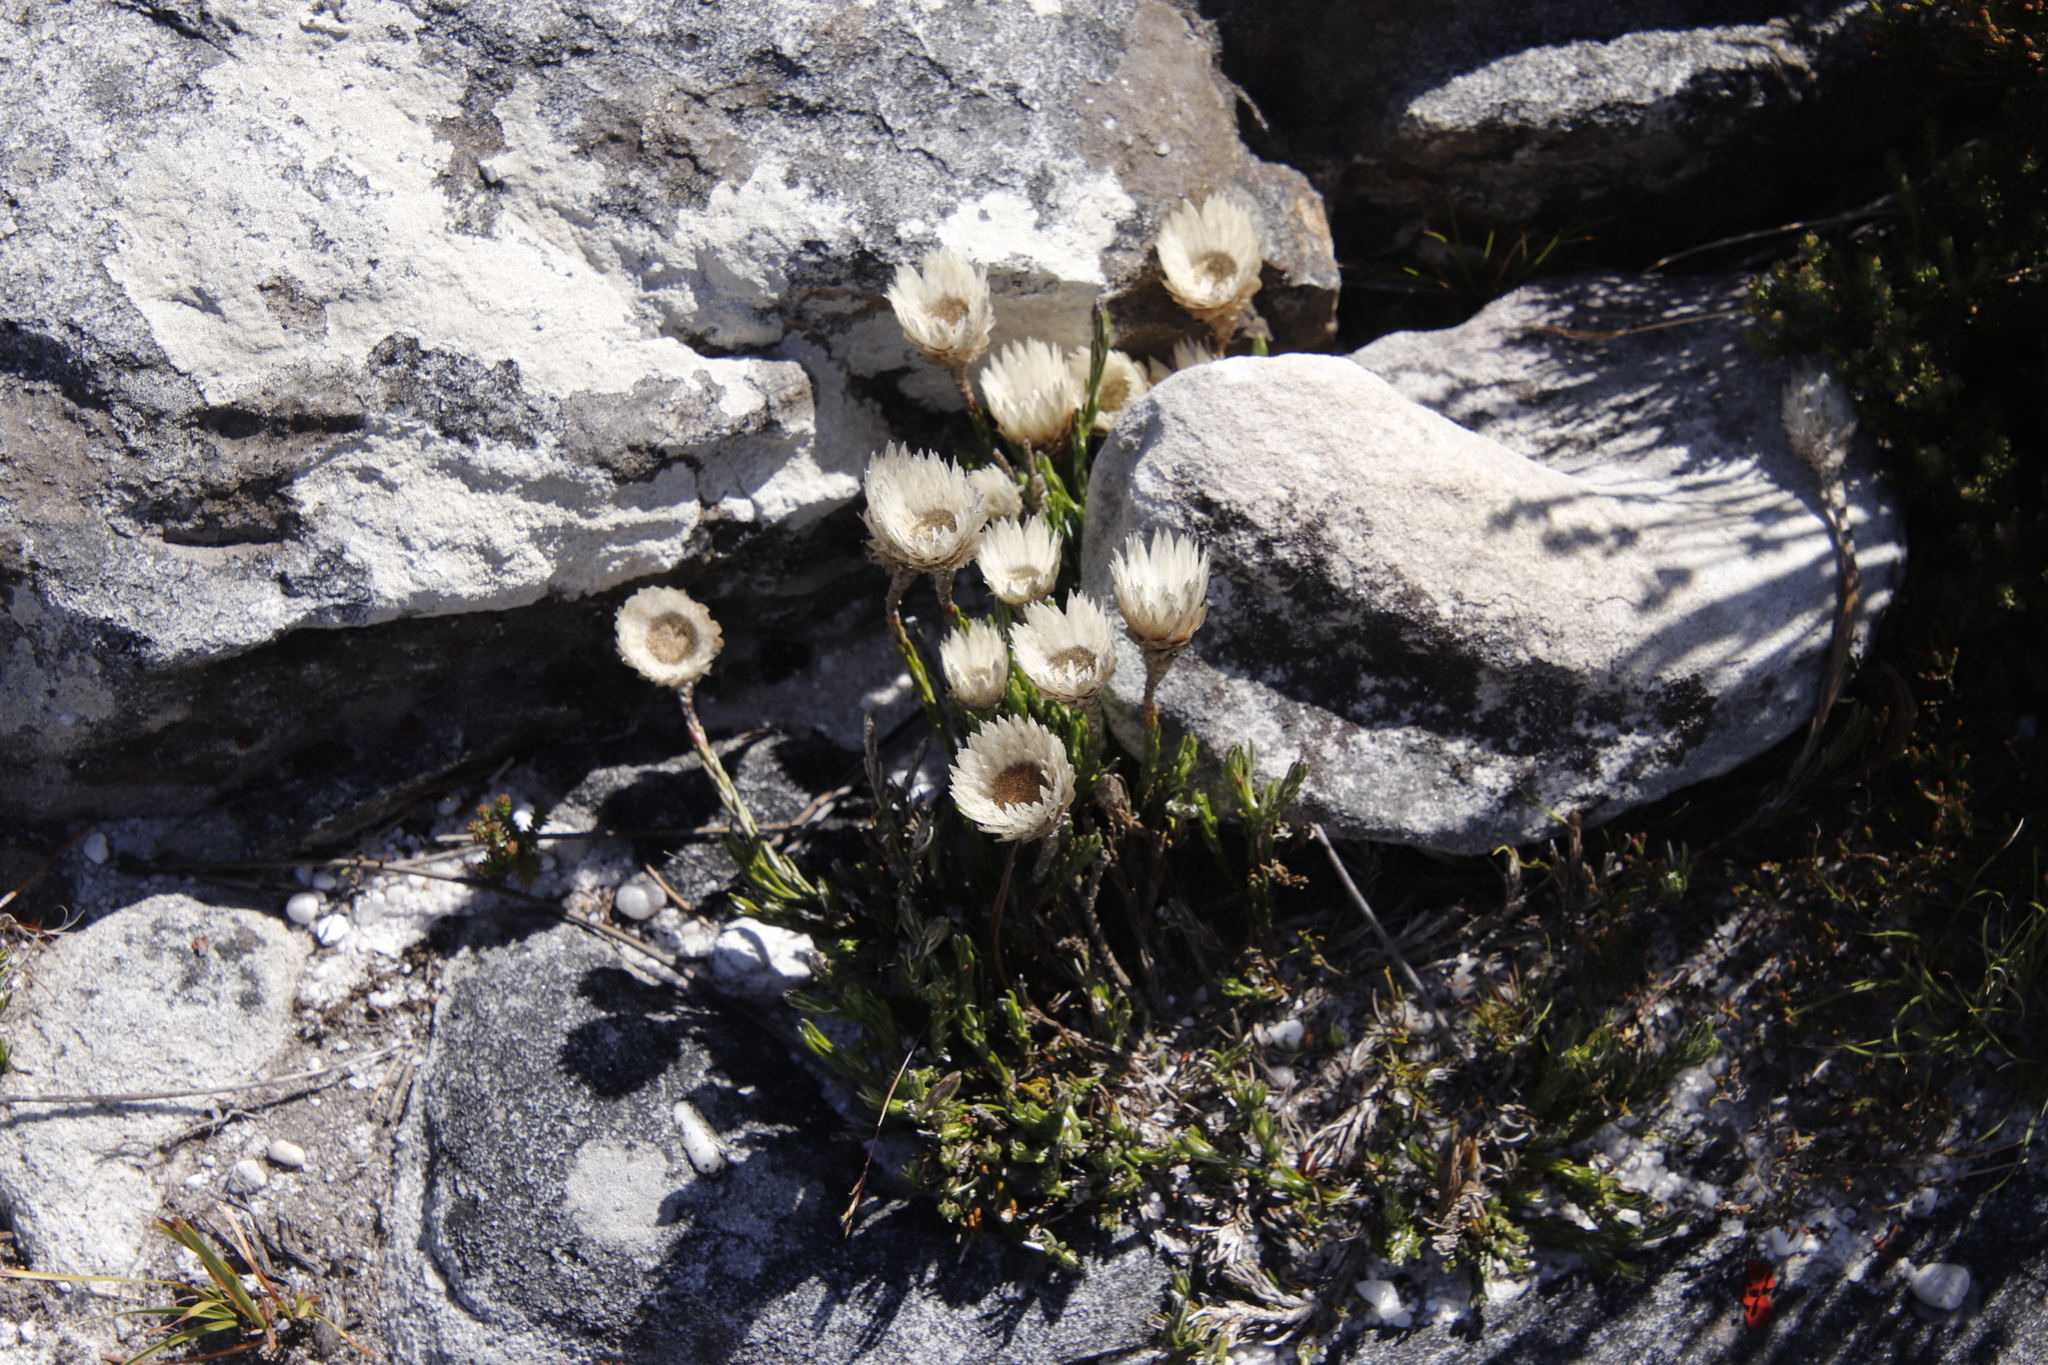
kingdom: Plantae
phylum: Tracheophyta
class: Magnoliopsida
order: Asterales
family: Asteraceae
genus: Edmondia
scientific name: Edmondia pinifolia
